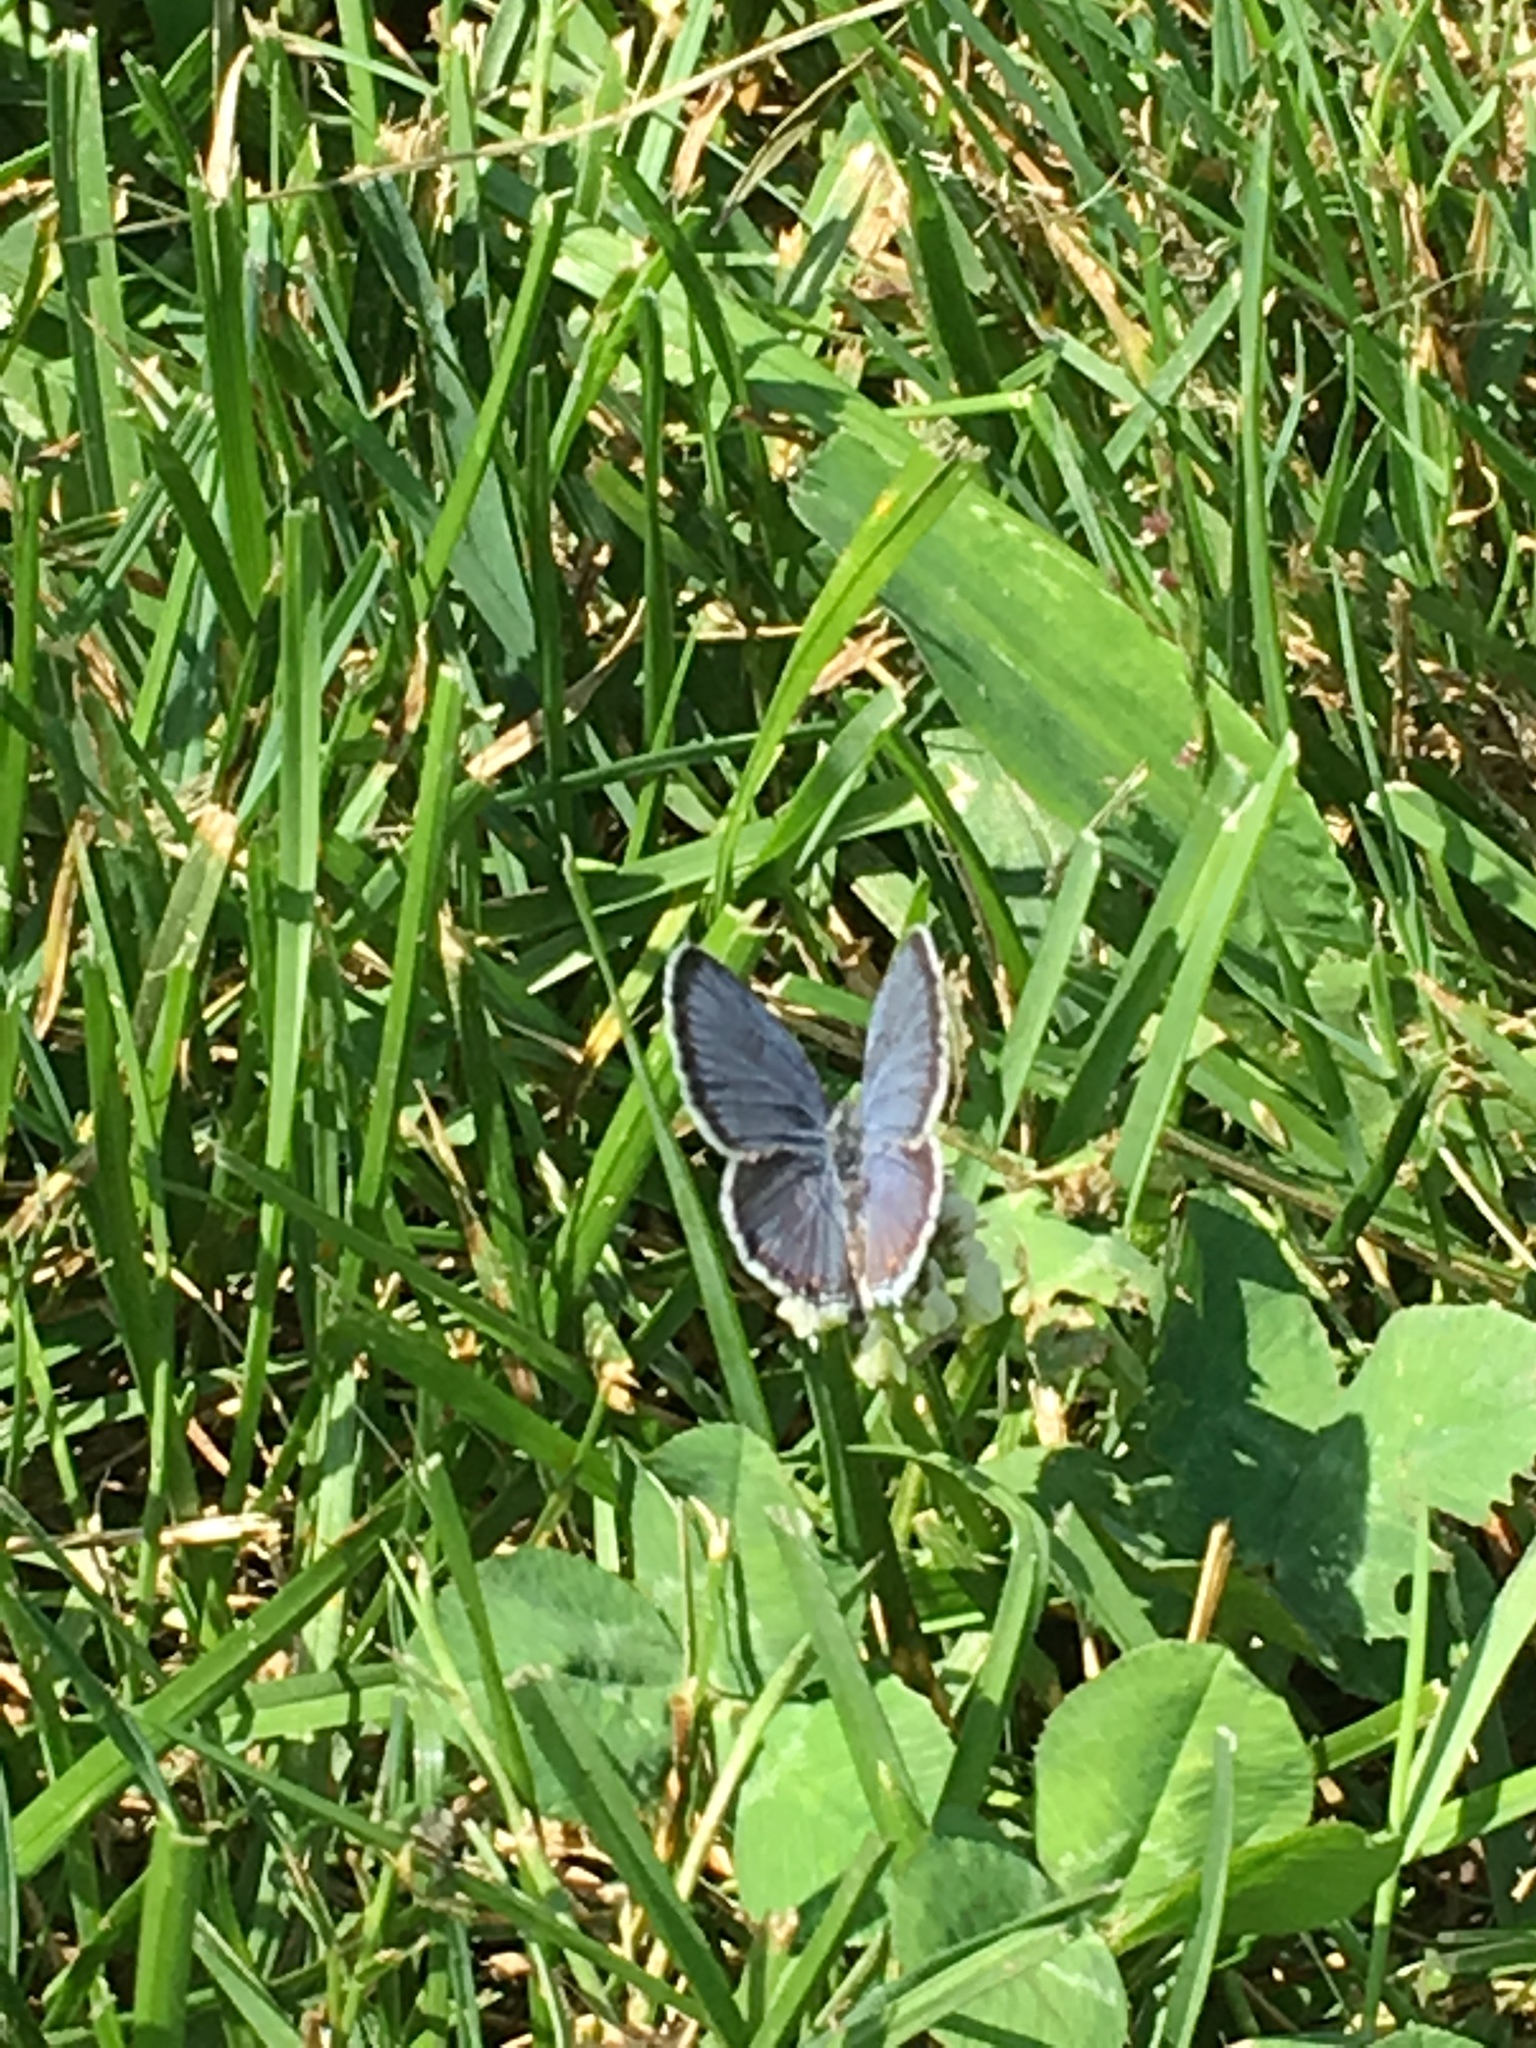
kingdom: Animalia
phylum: Arthropoda
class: Insecta
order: Lepidoptera
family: Lycaenidae
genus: Elkalyce
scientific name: Elkalyce comyntas
